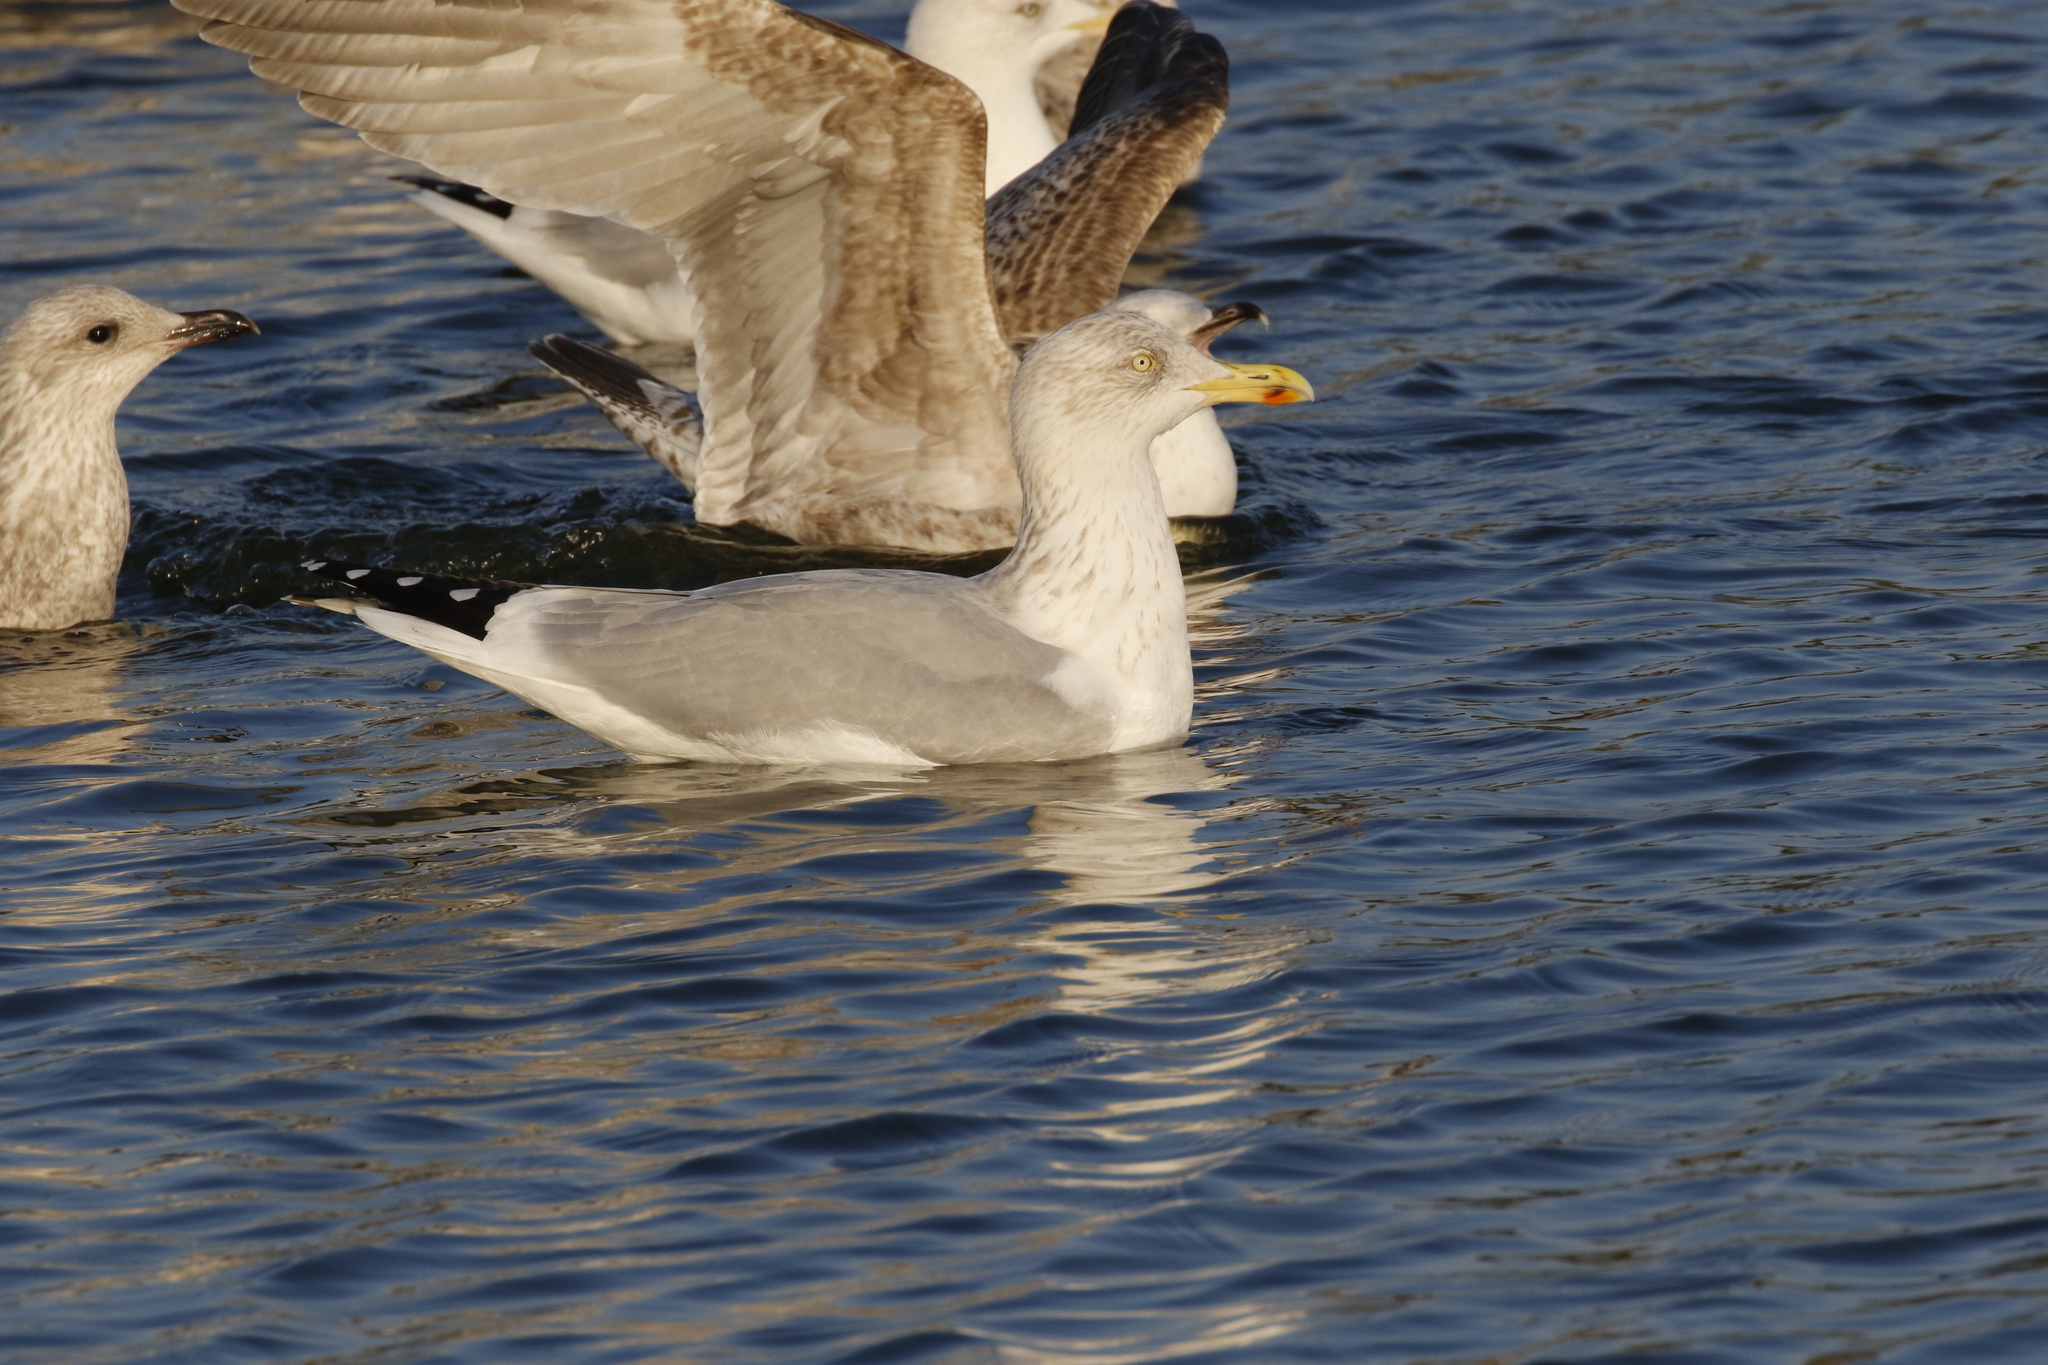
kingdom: Animalia
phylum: Chordata
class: Aves
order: Charadriiformes
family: Laridae
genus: Larus
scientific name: Larus argentatus
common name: Herring gull
